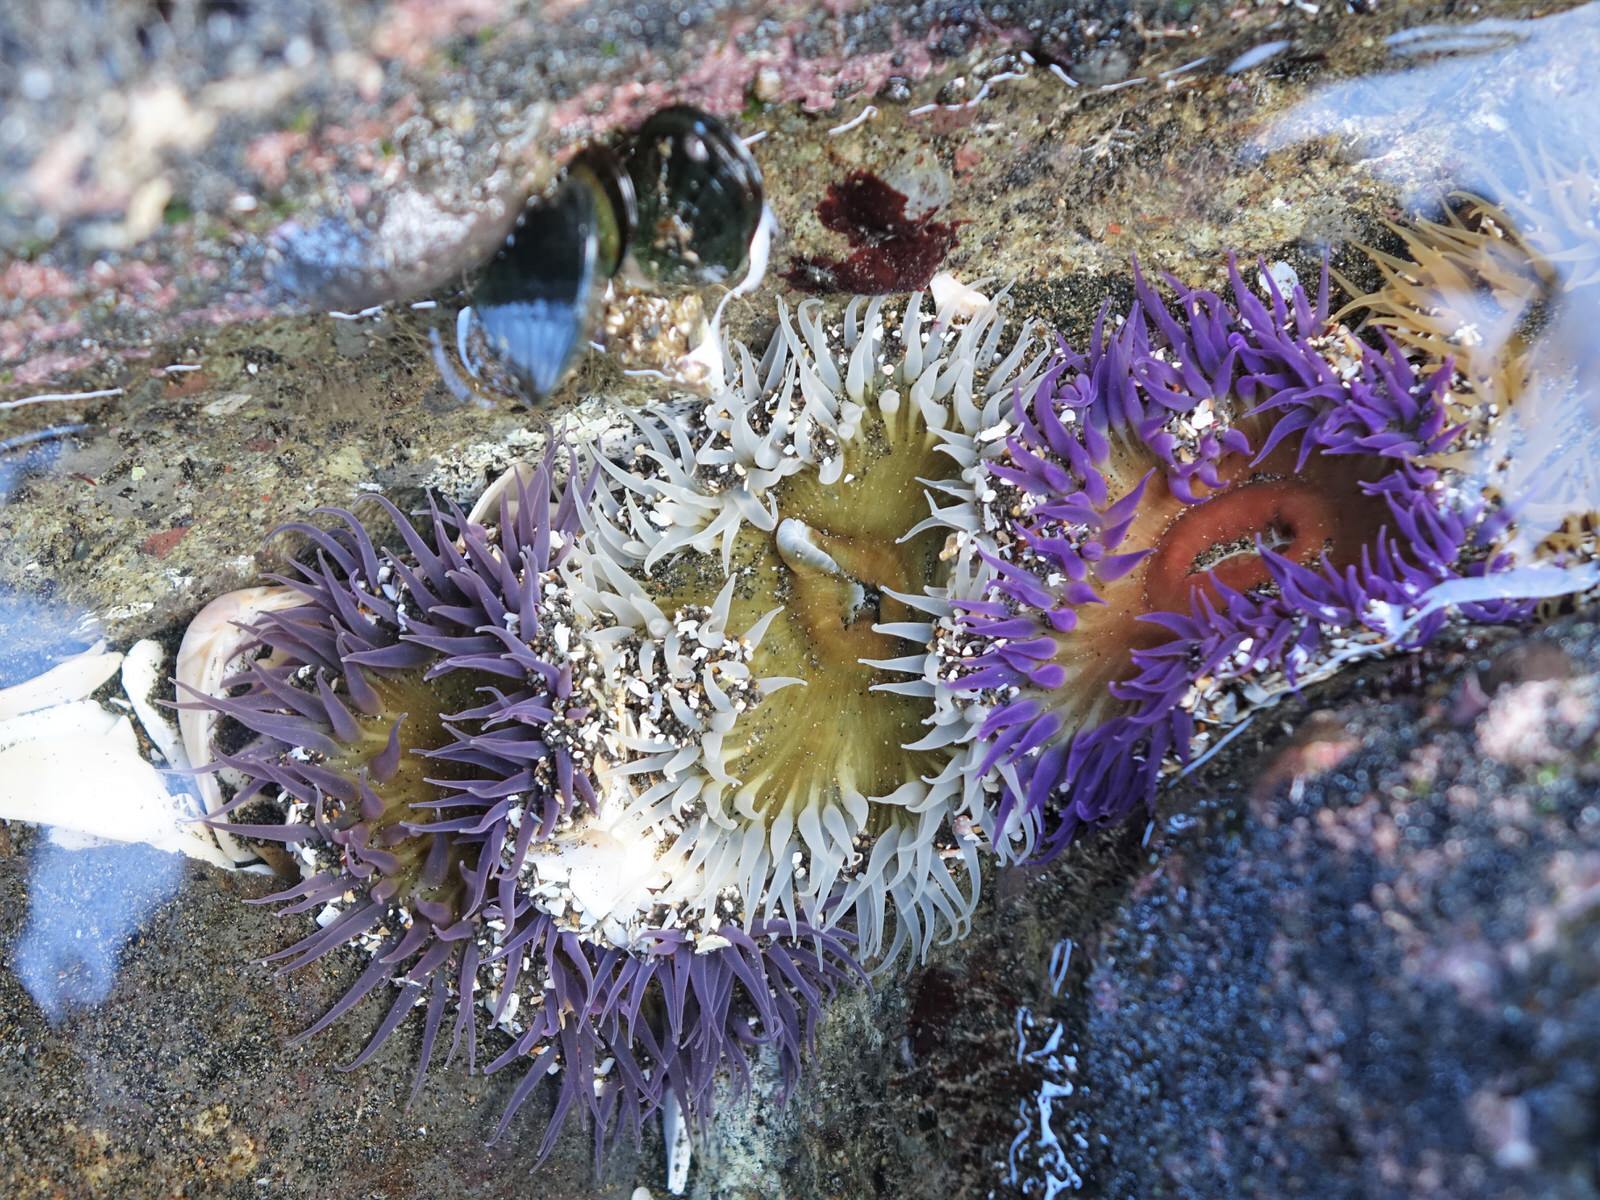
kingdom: Animalia
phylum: Cnidaria
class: Anthozoa
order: Actiniaria
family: Actiniidae
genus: Oulactis
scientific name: Oulactis magna
